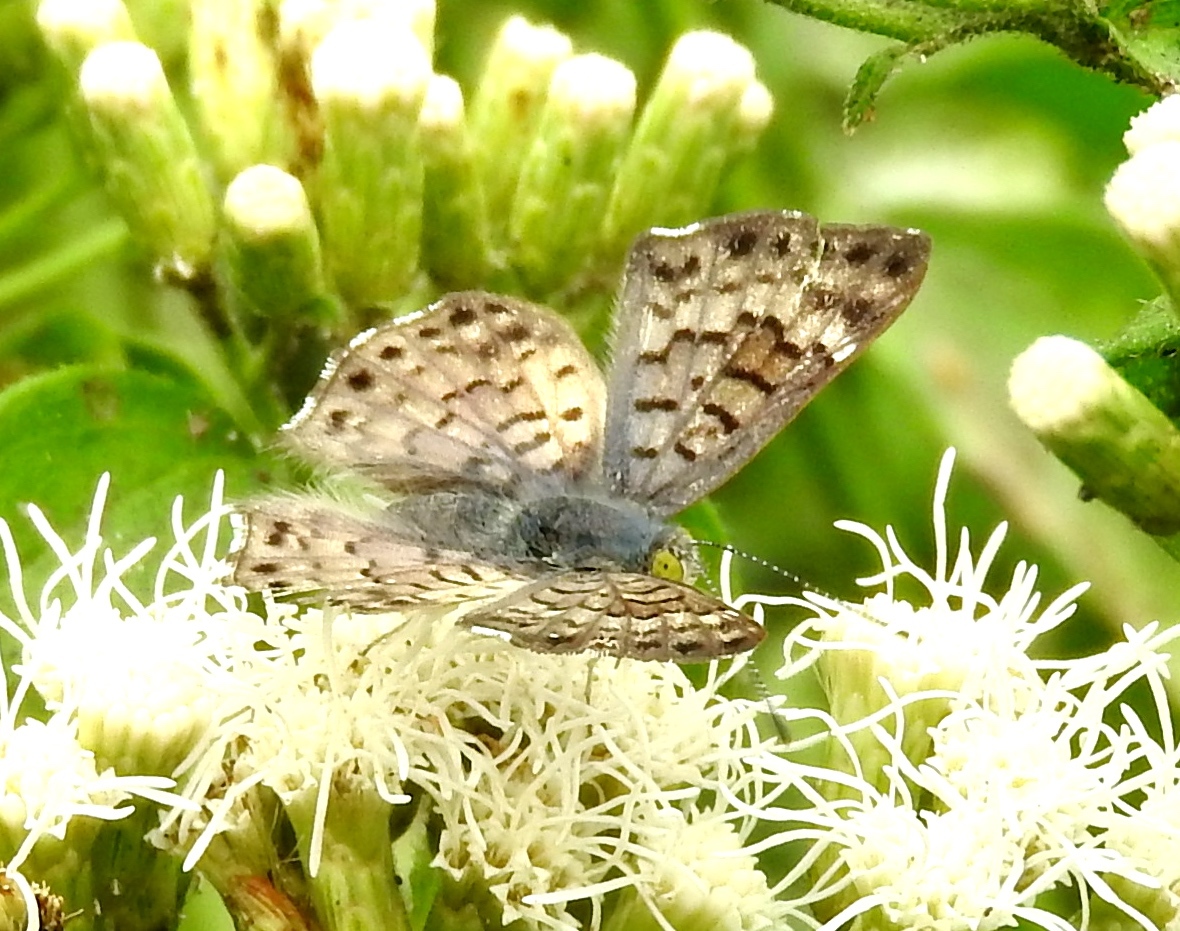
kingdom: Animalia
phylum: Arthropoda
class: Insecta
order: Lepidoptera
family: Riodinidae
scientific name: Riodinidae
